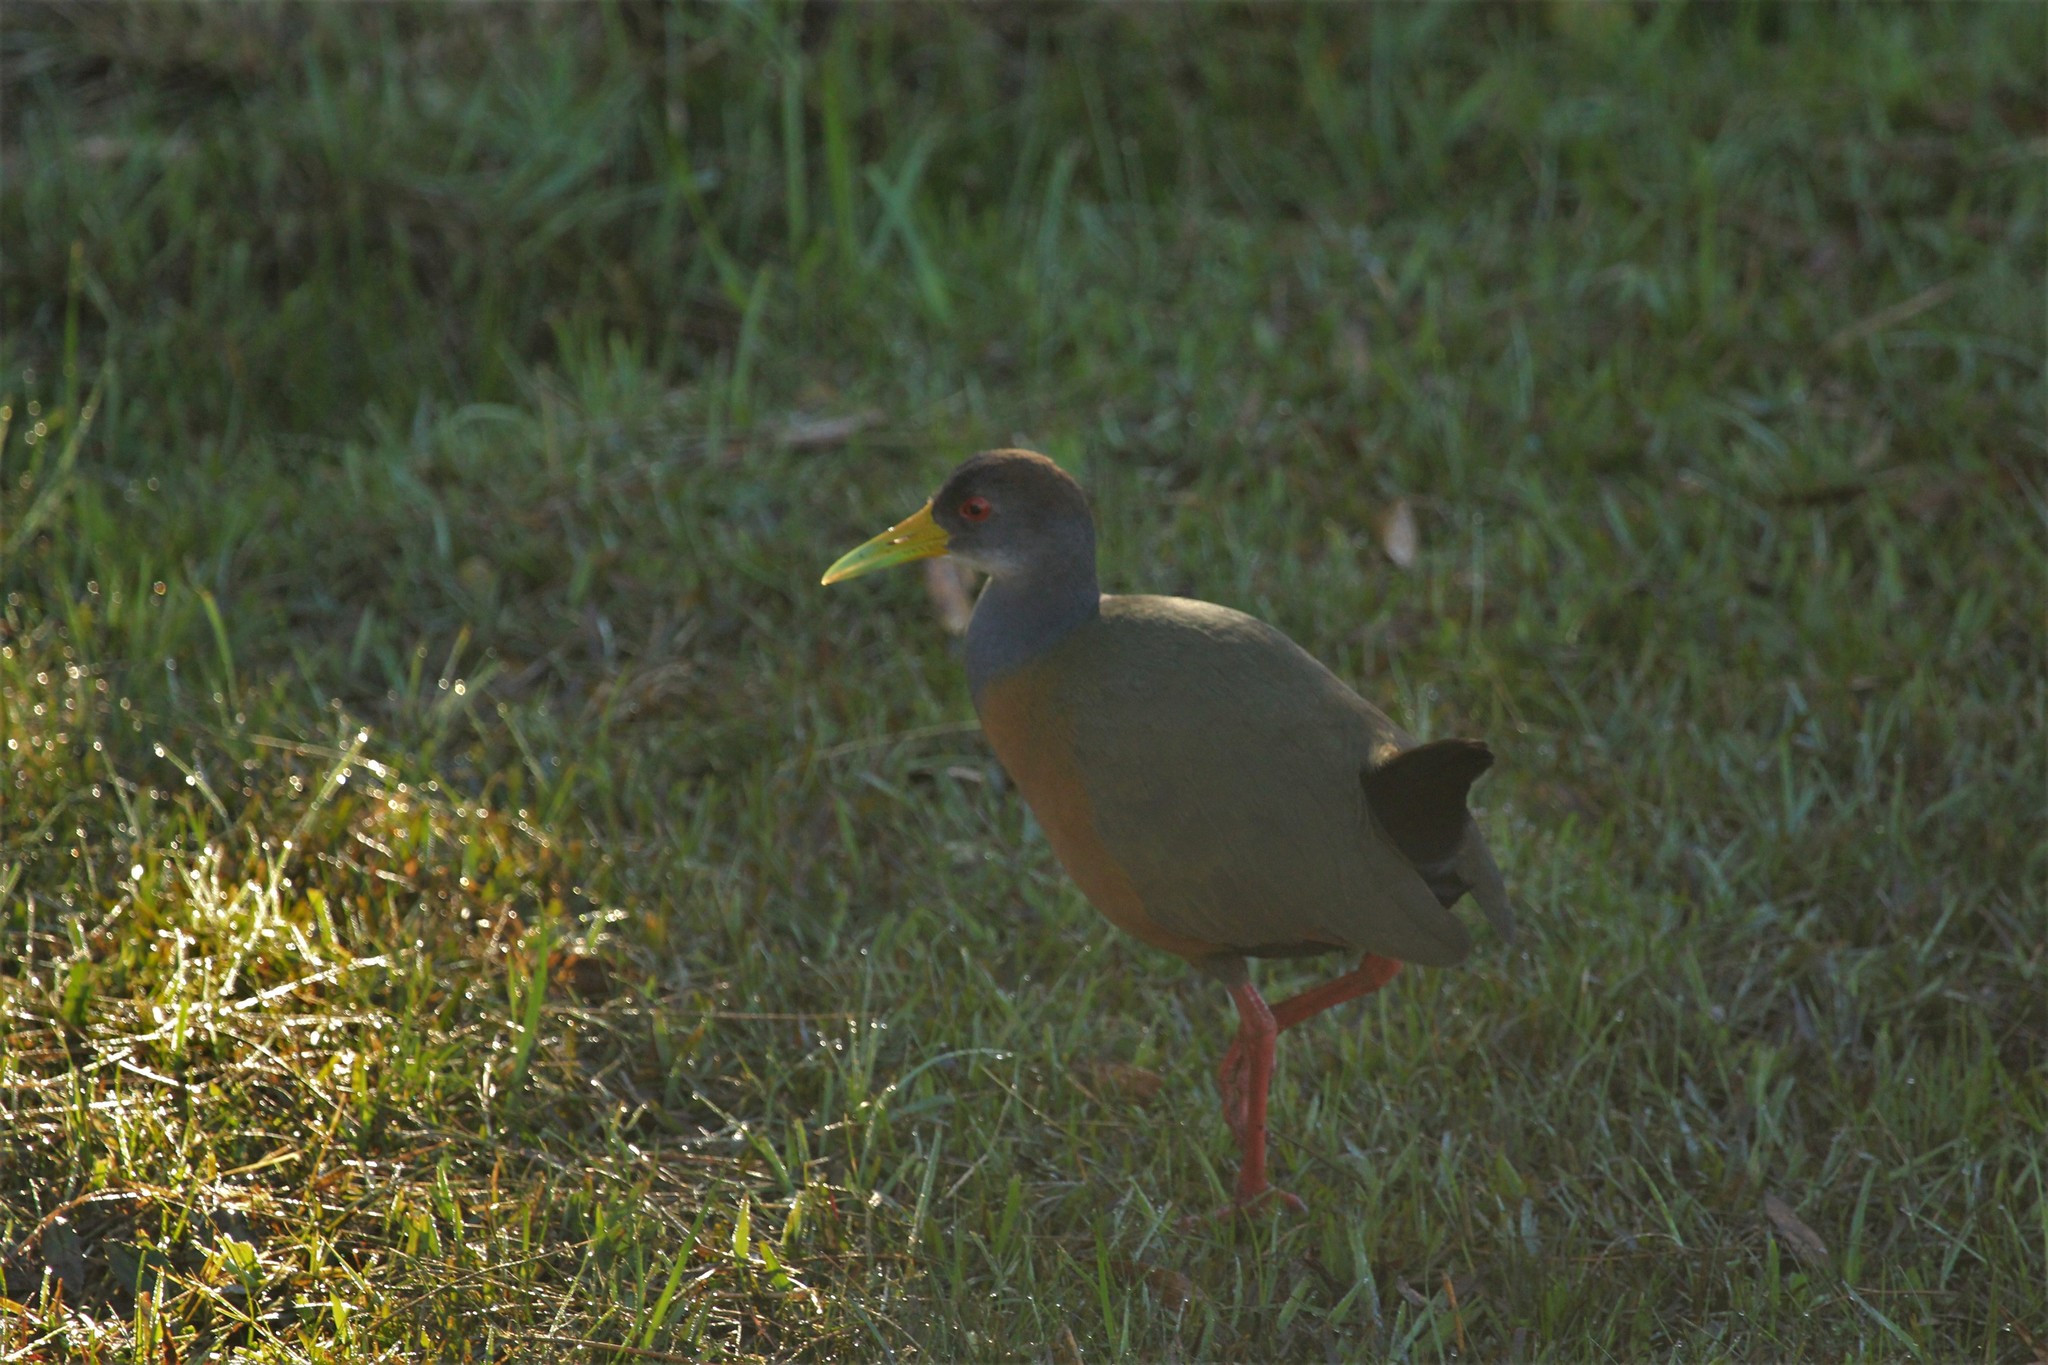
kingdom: Animalia
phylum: Chordata
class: Aves
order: Gruiformes
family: Rallidae
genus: Aramides
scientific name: Aramides cajanea
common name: Gray-necked wood-rail
